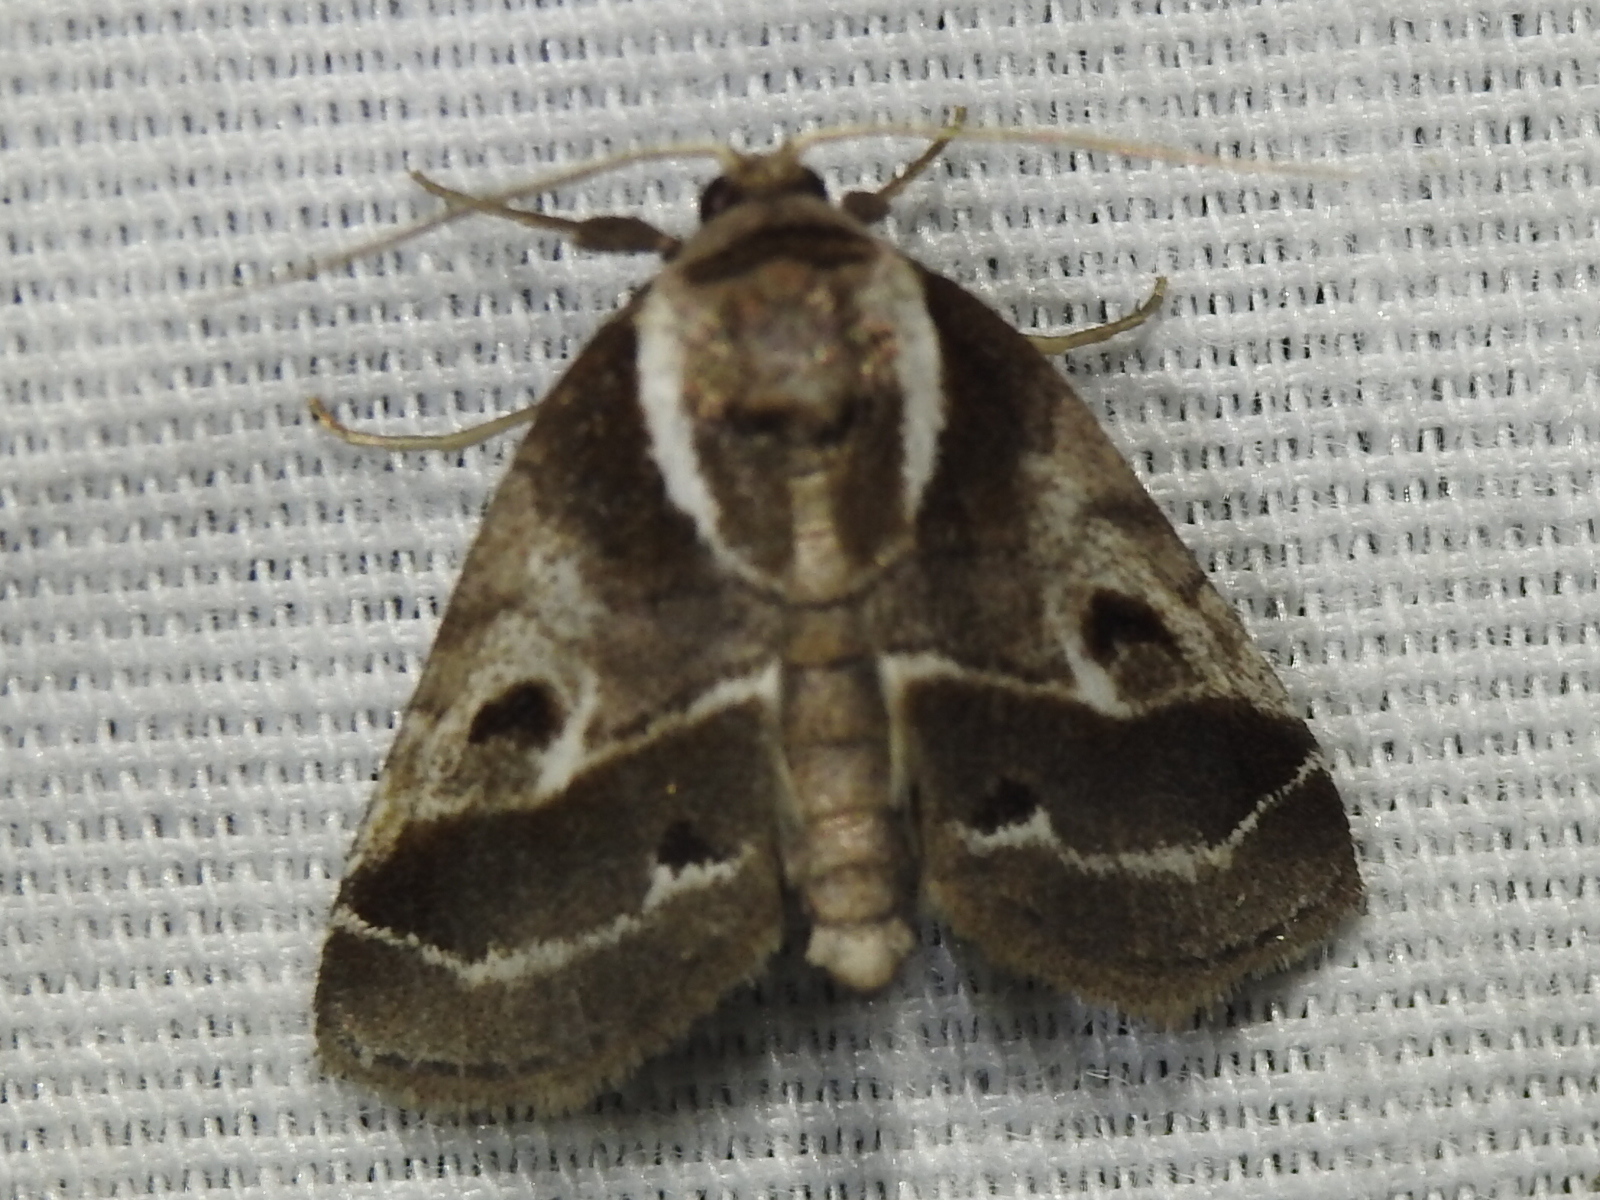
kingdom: Animalia
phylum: Arthropoda
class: Insecta
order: Lepidoptera
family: Nolidae
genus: Baileya
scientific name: Baileya doubledayi
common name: Doubleday's baileya moth
